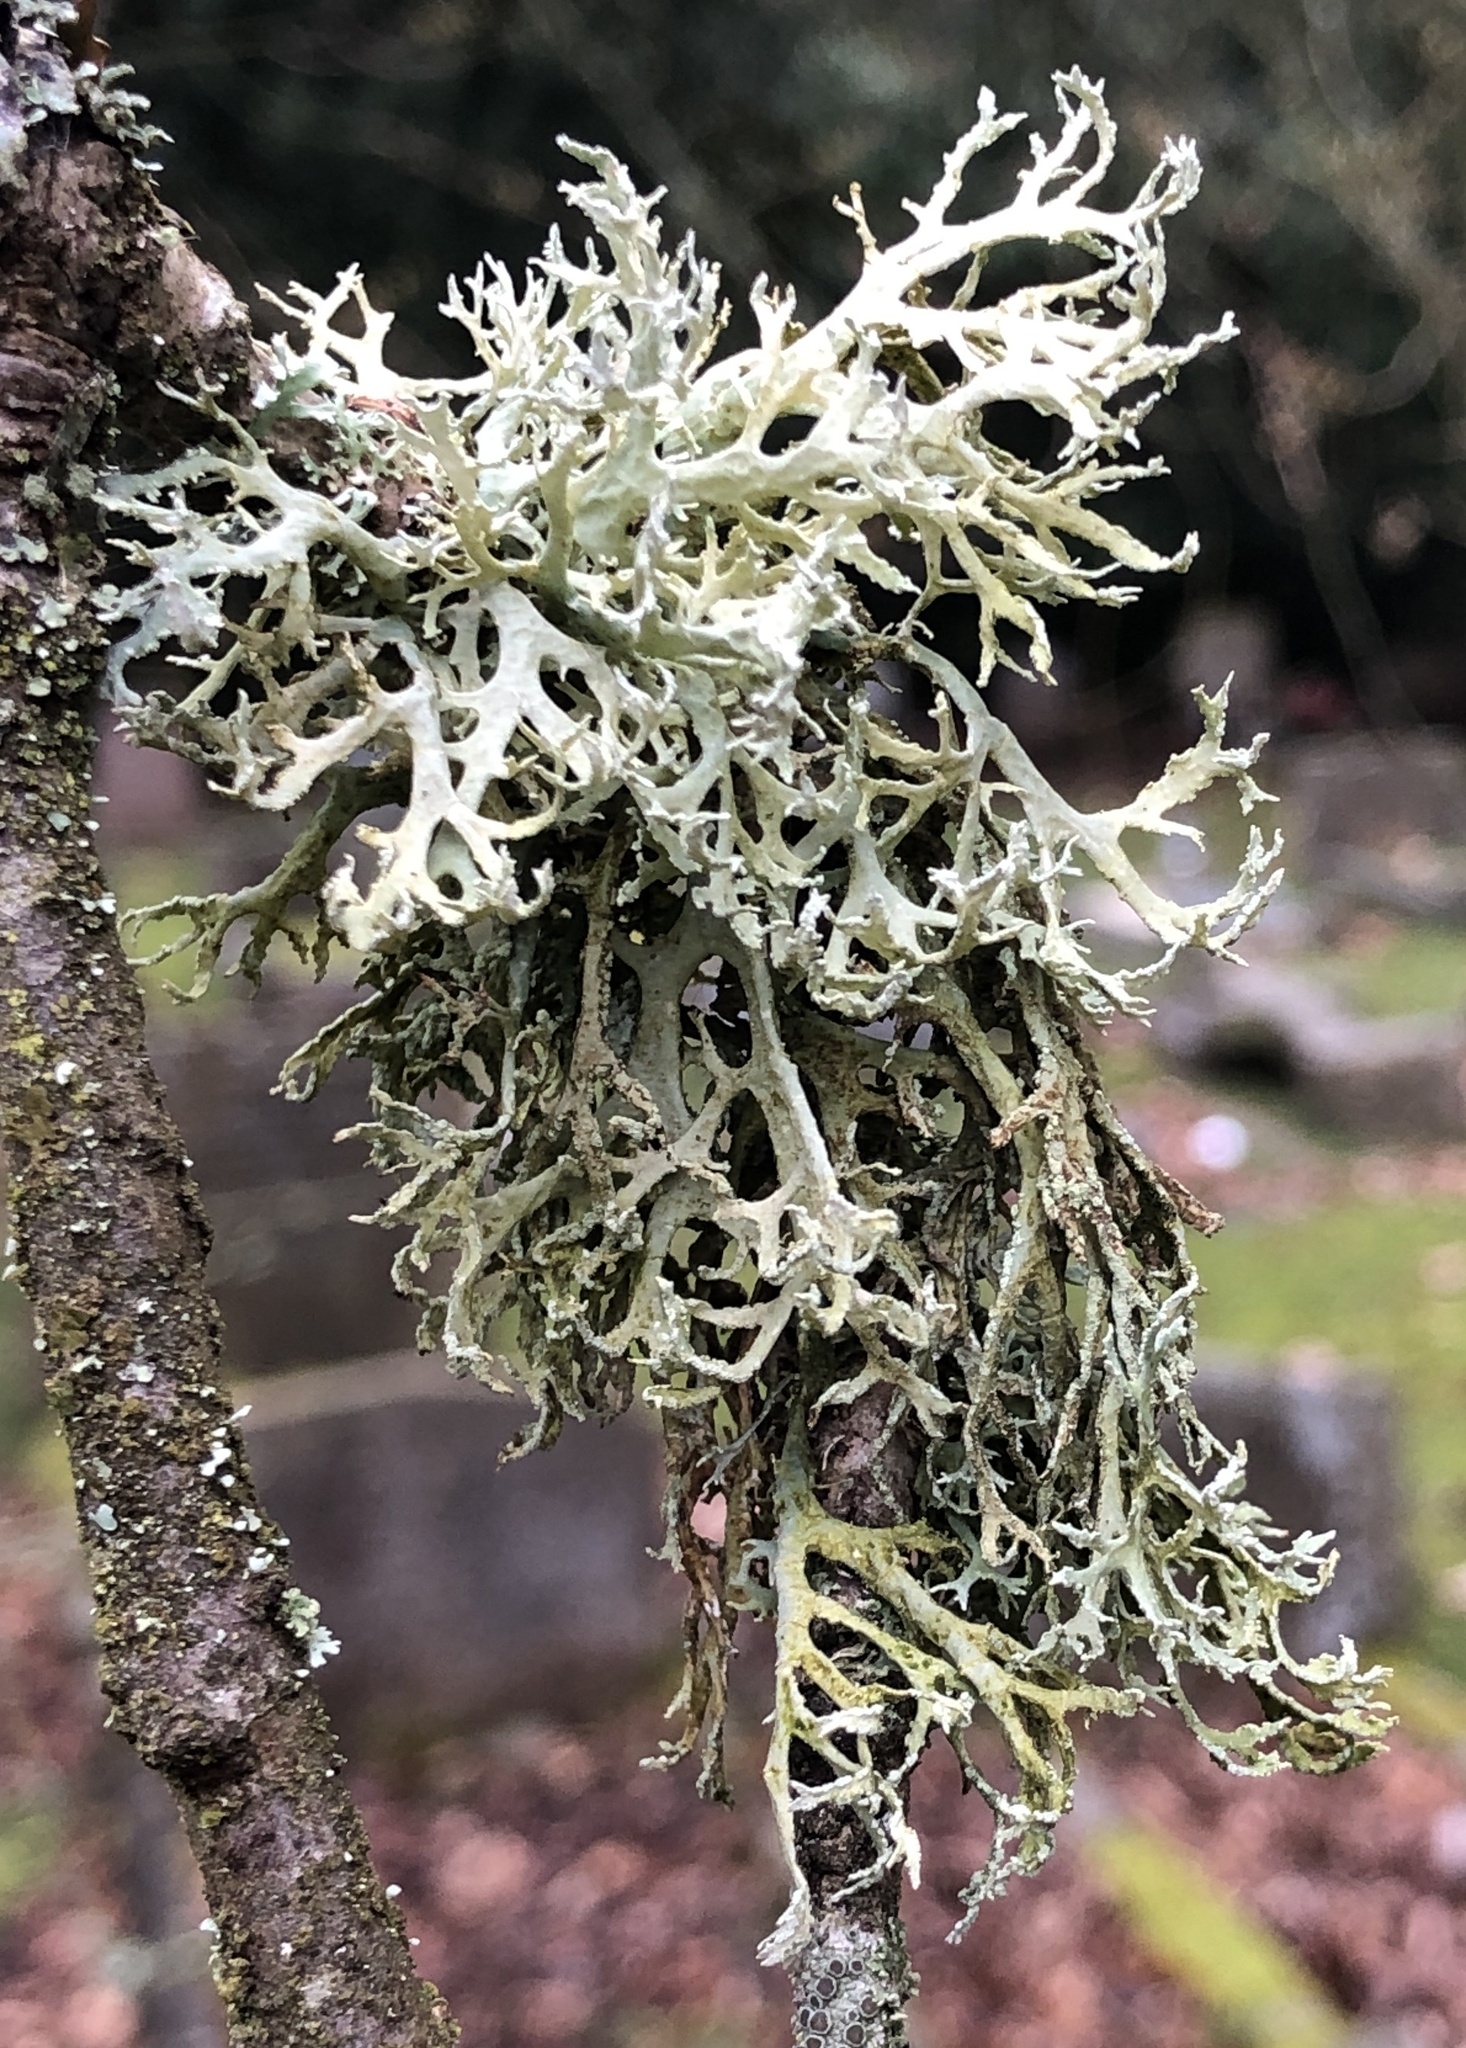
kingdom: Fungi
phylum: Ascomycota
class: Lecanoromycetes
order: Lecanorales
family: Parmeliaceae
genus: Evernia
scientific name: Evernia prunastri
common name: Oak moss
